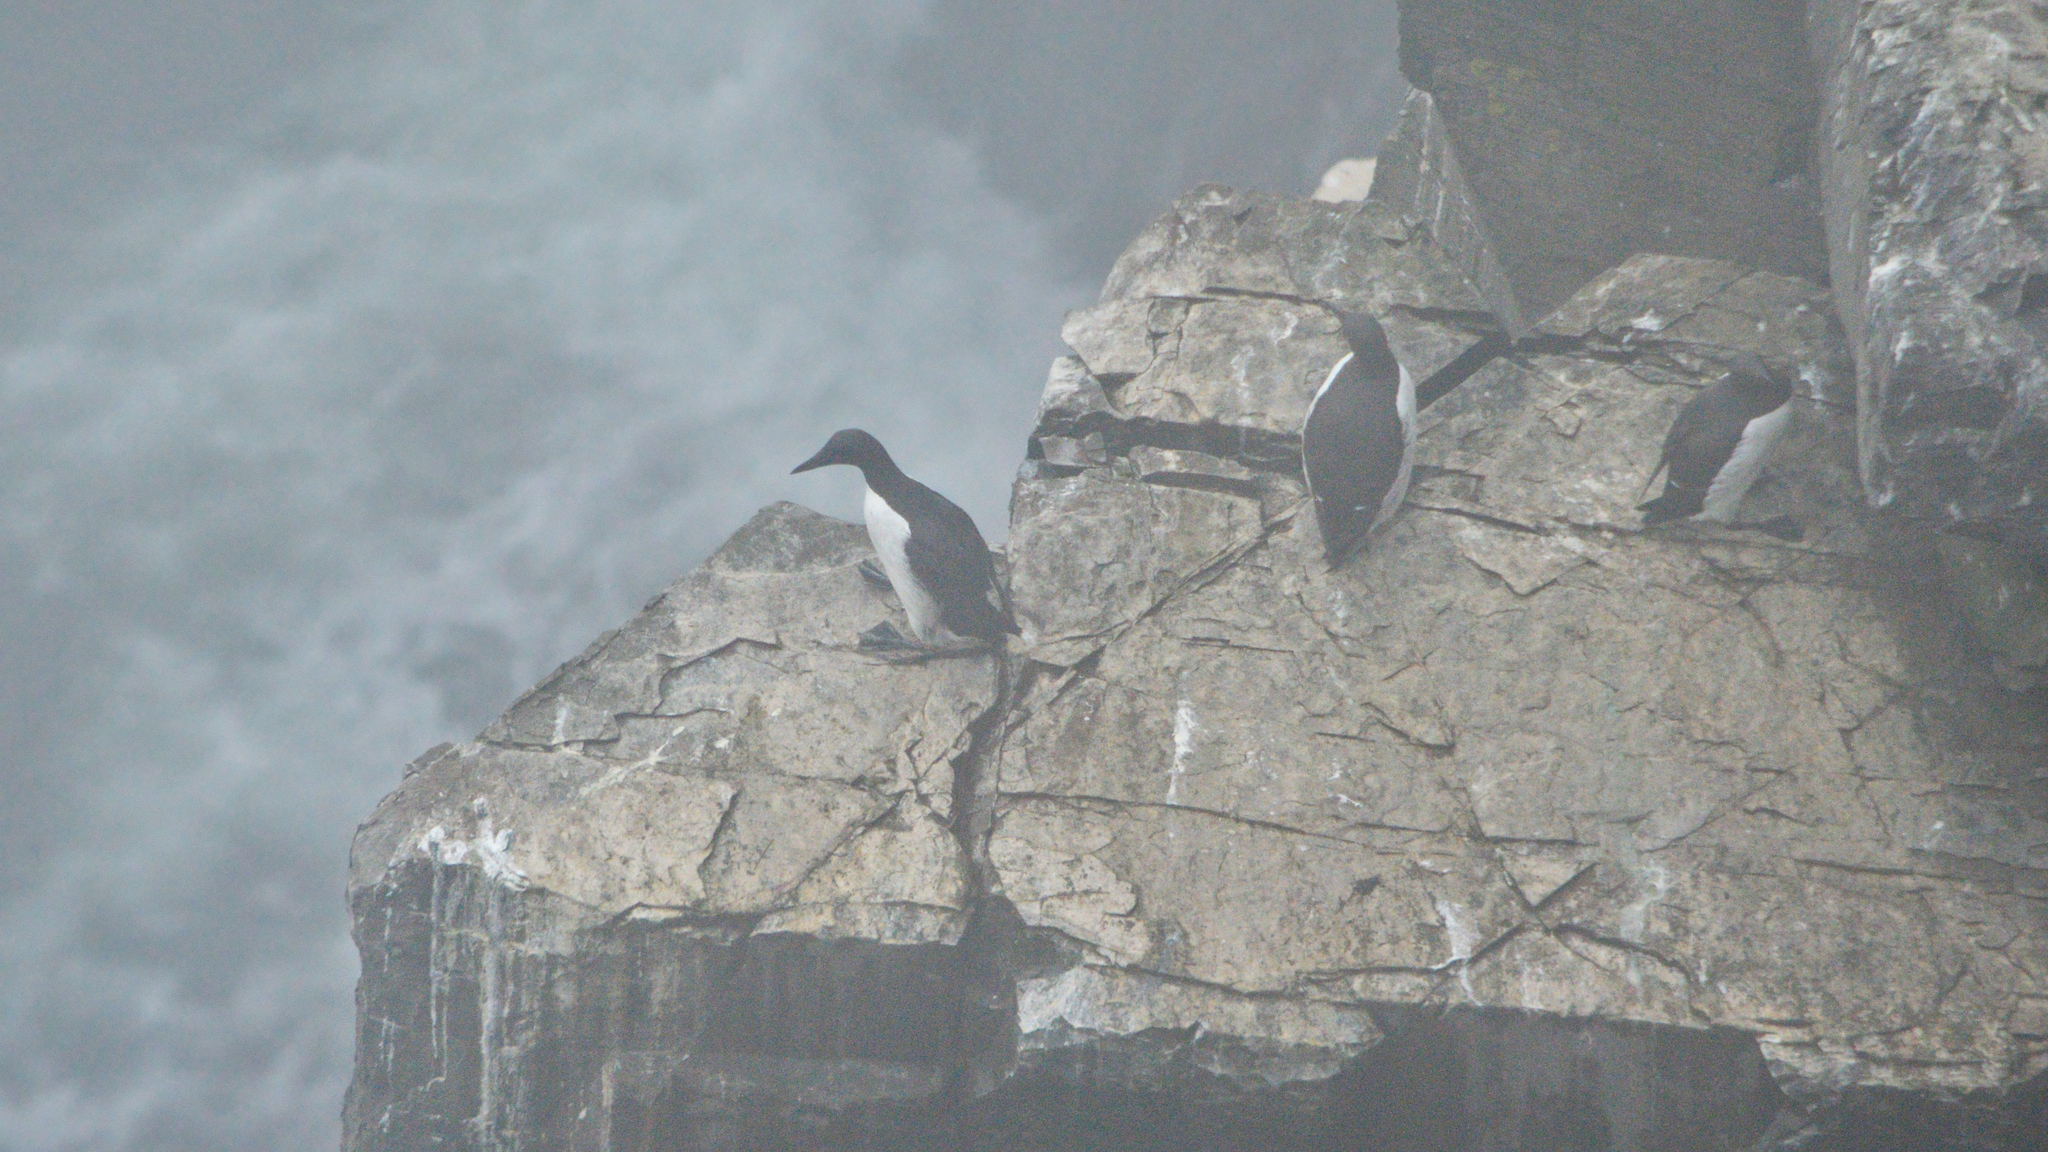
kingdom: Animalia
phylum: Chordata
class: Aves
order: Charadriiformes
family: Alcidae
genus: Uria
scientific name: Uria aalge
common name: Common murre
